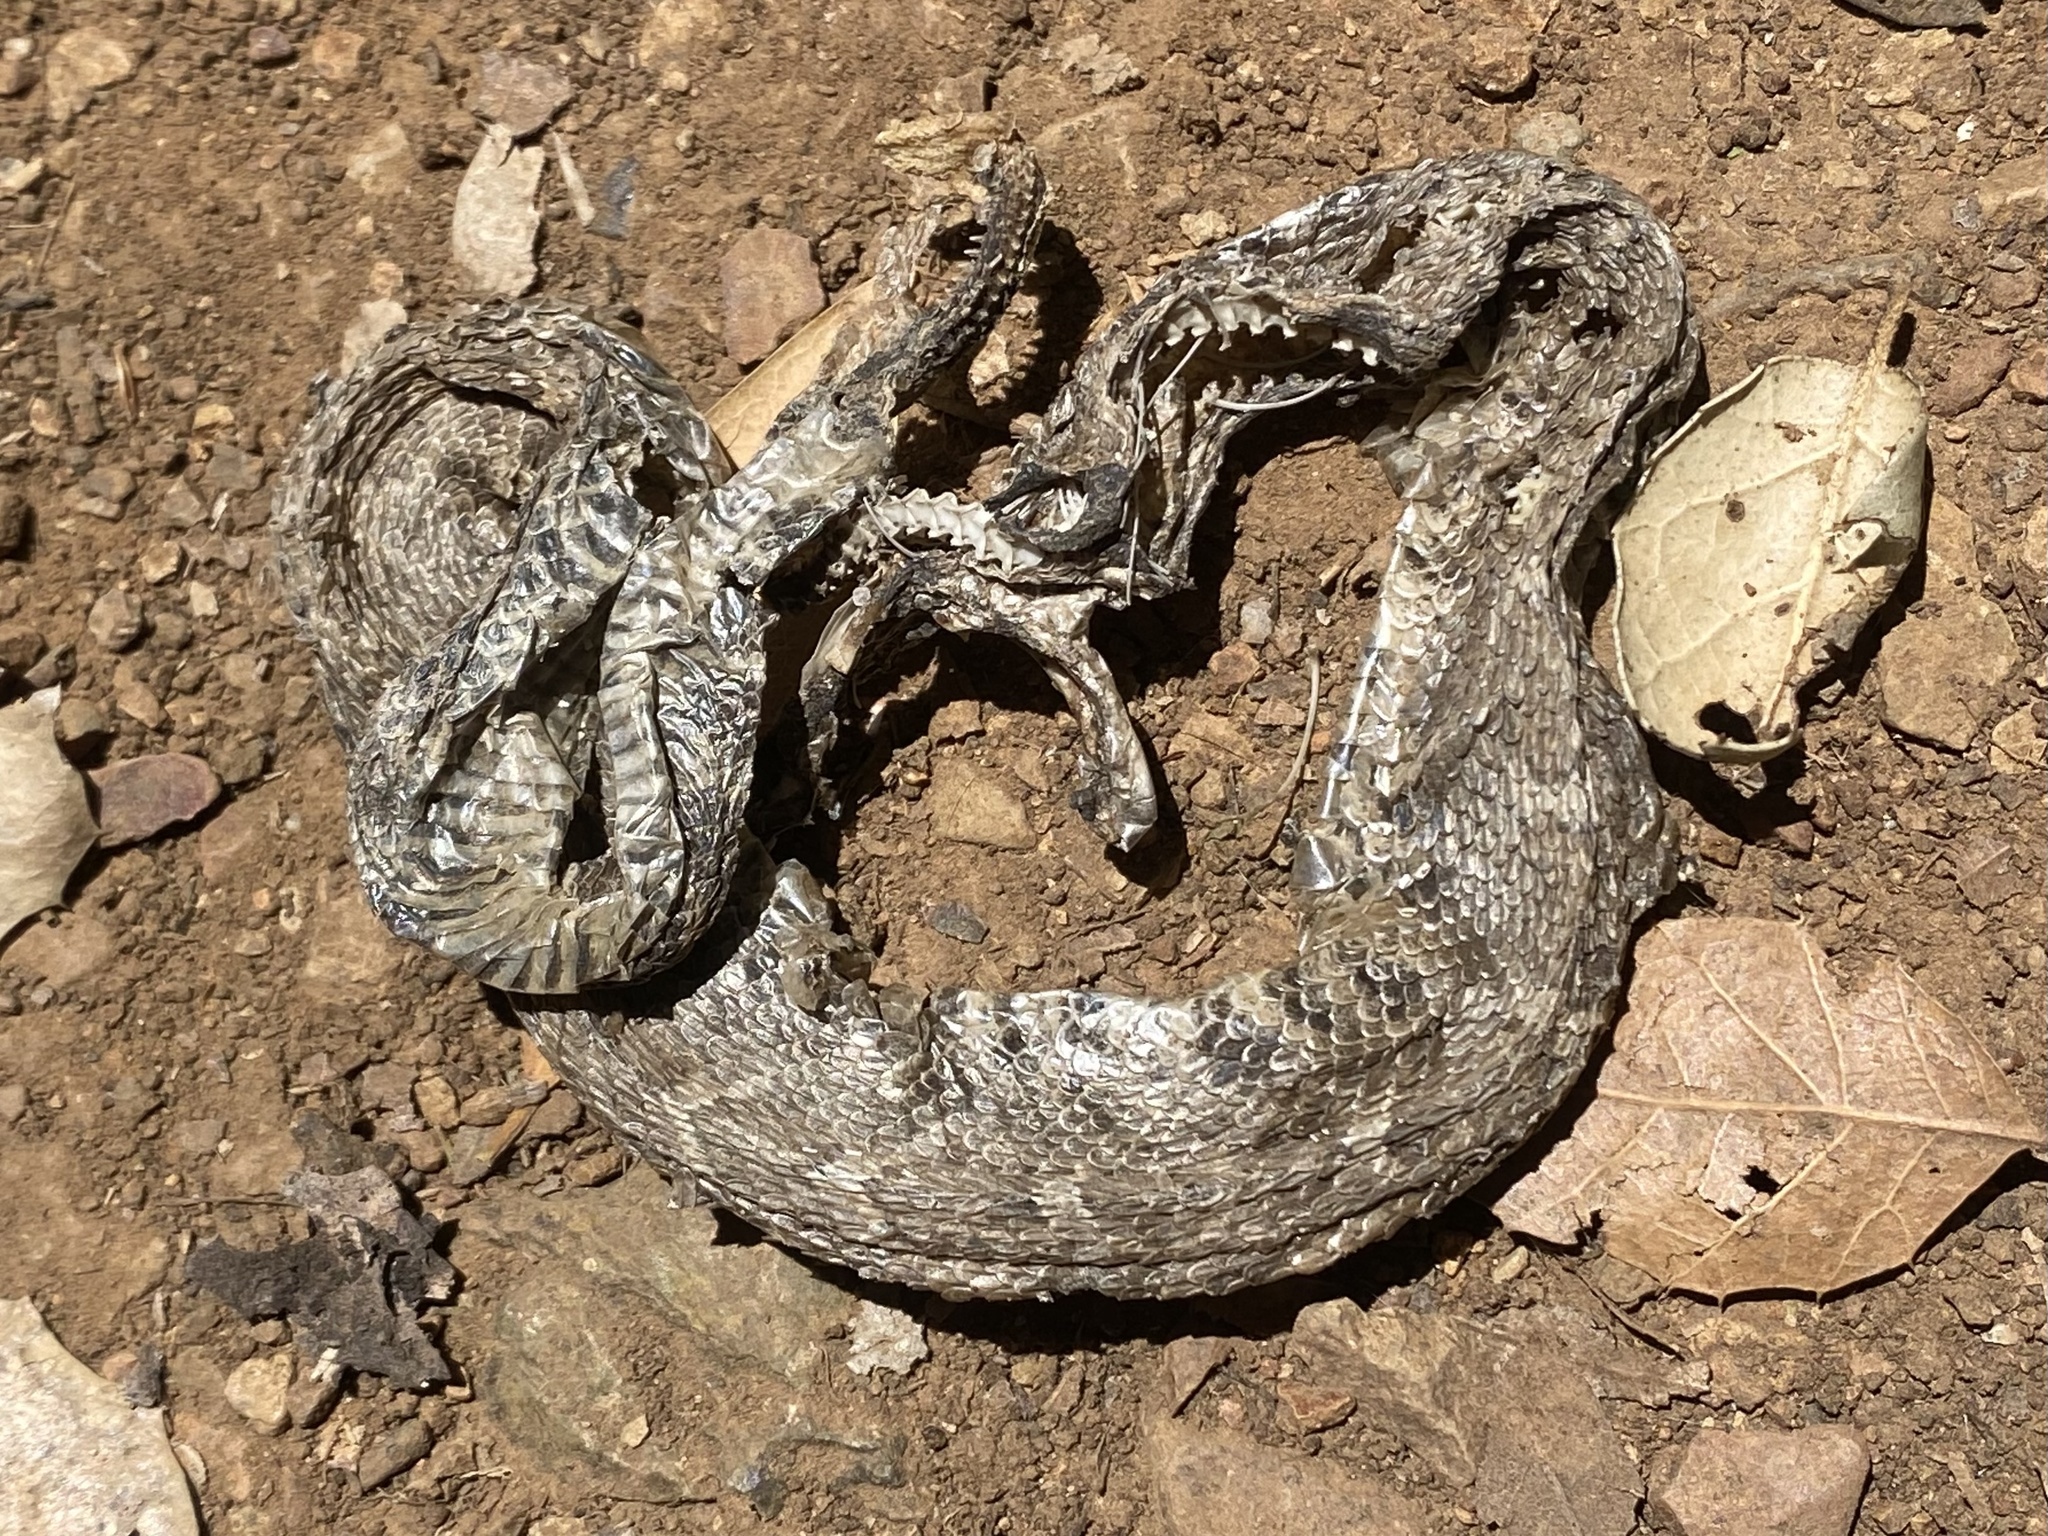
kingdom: Animalia
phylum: Chordata
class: Squamata
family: Viperidae
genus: Crotalus
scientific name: Crotalus oreganus
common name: Abyssus
